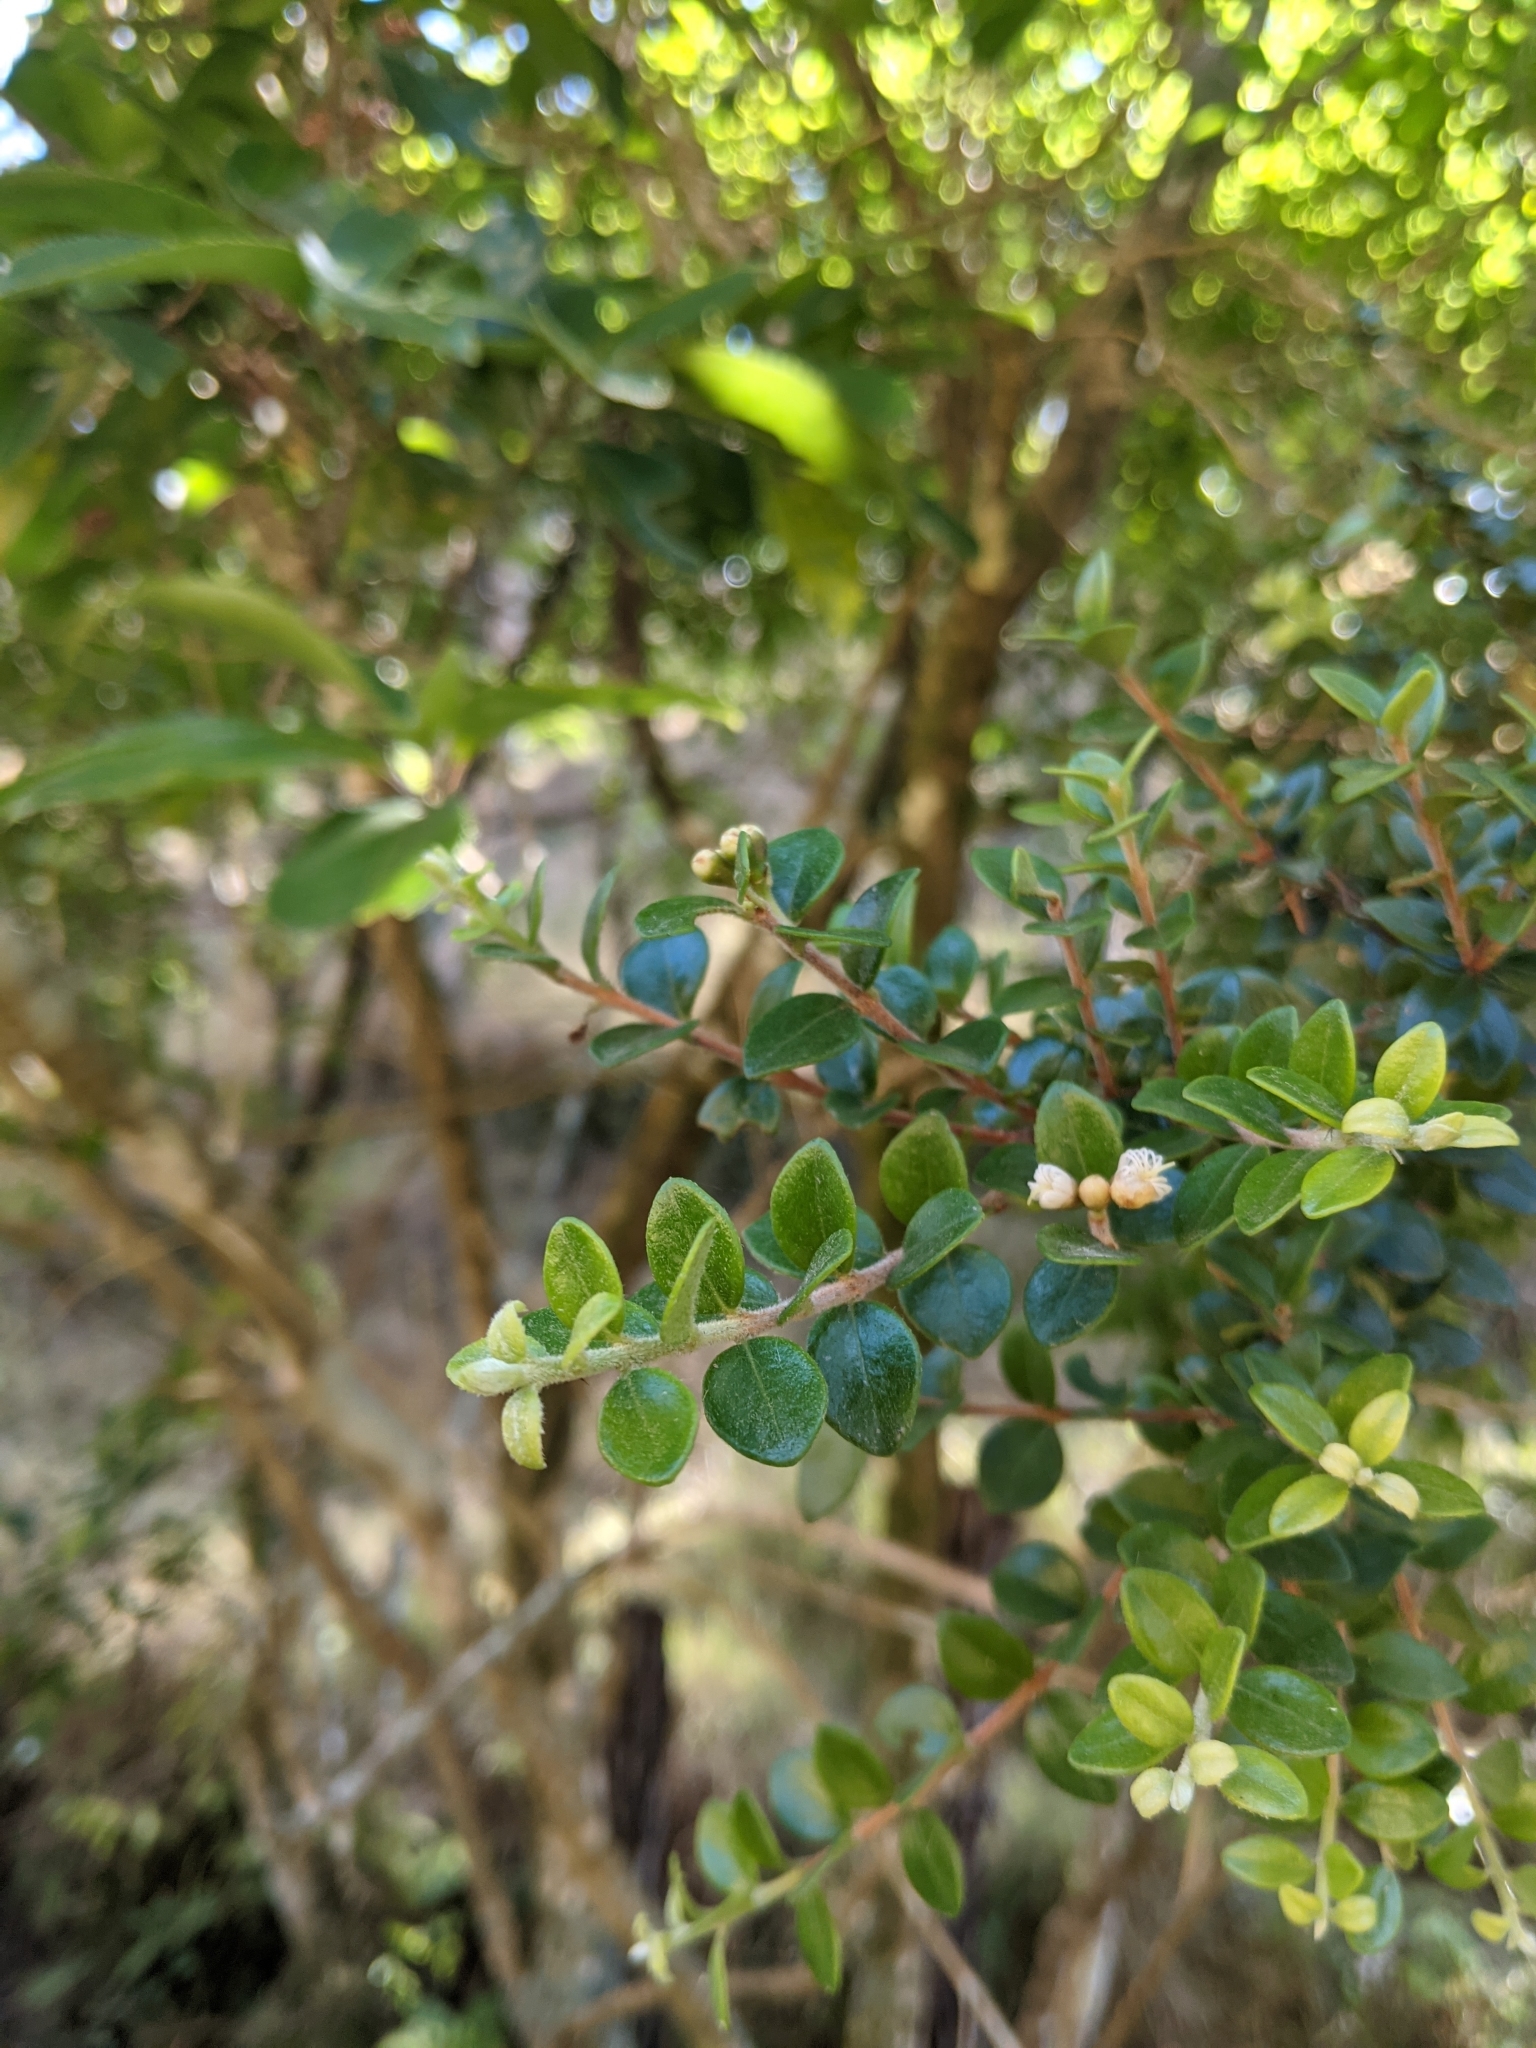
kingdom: Plantae
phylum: Tracheophyta
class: Magnoliopsida
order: Myrtales
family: Myrtaceae
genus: Metrosideros
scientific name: Metrosideros perforata
